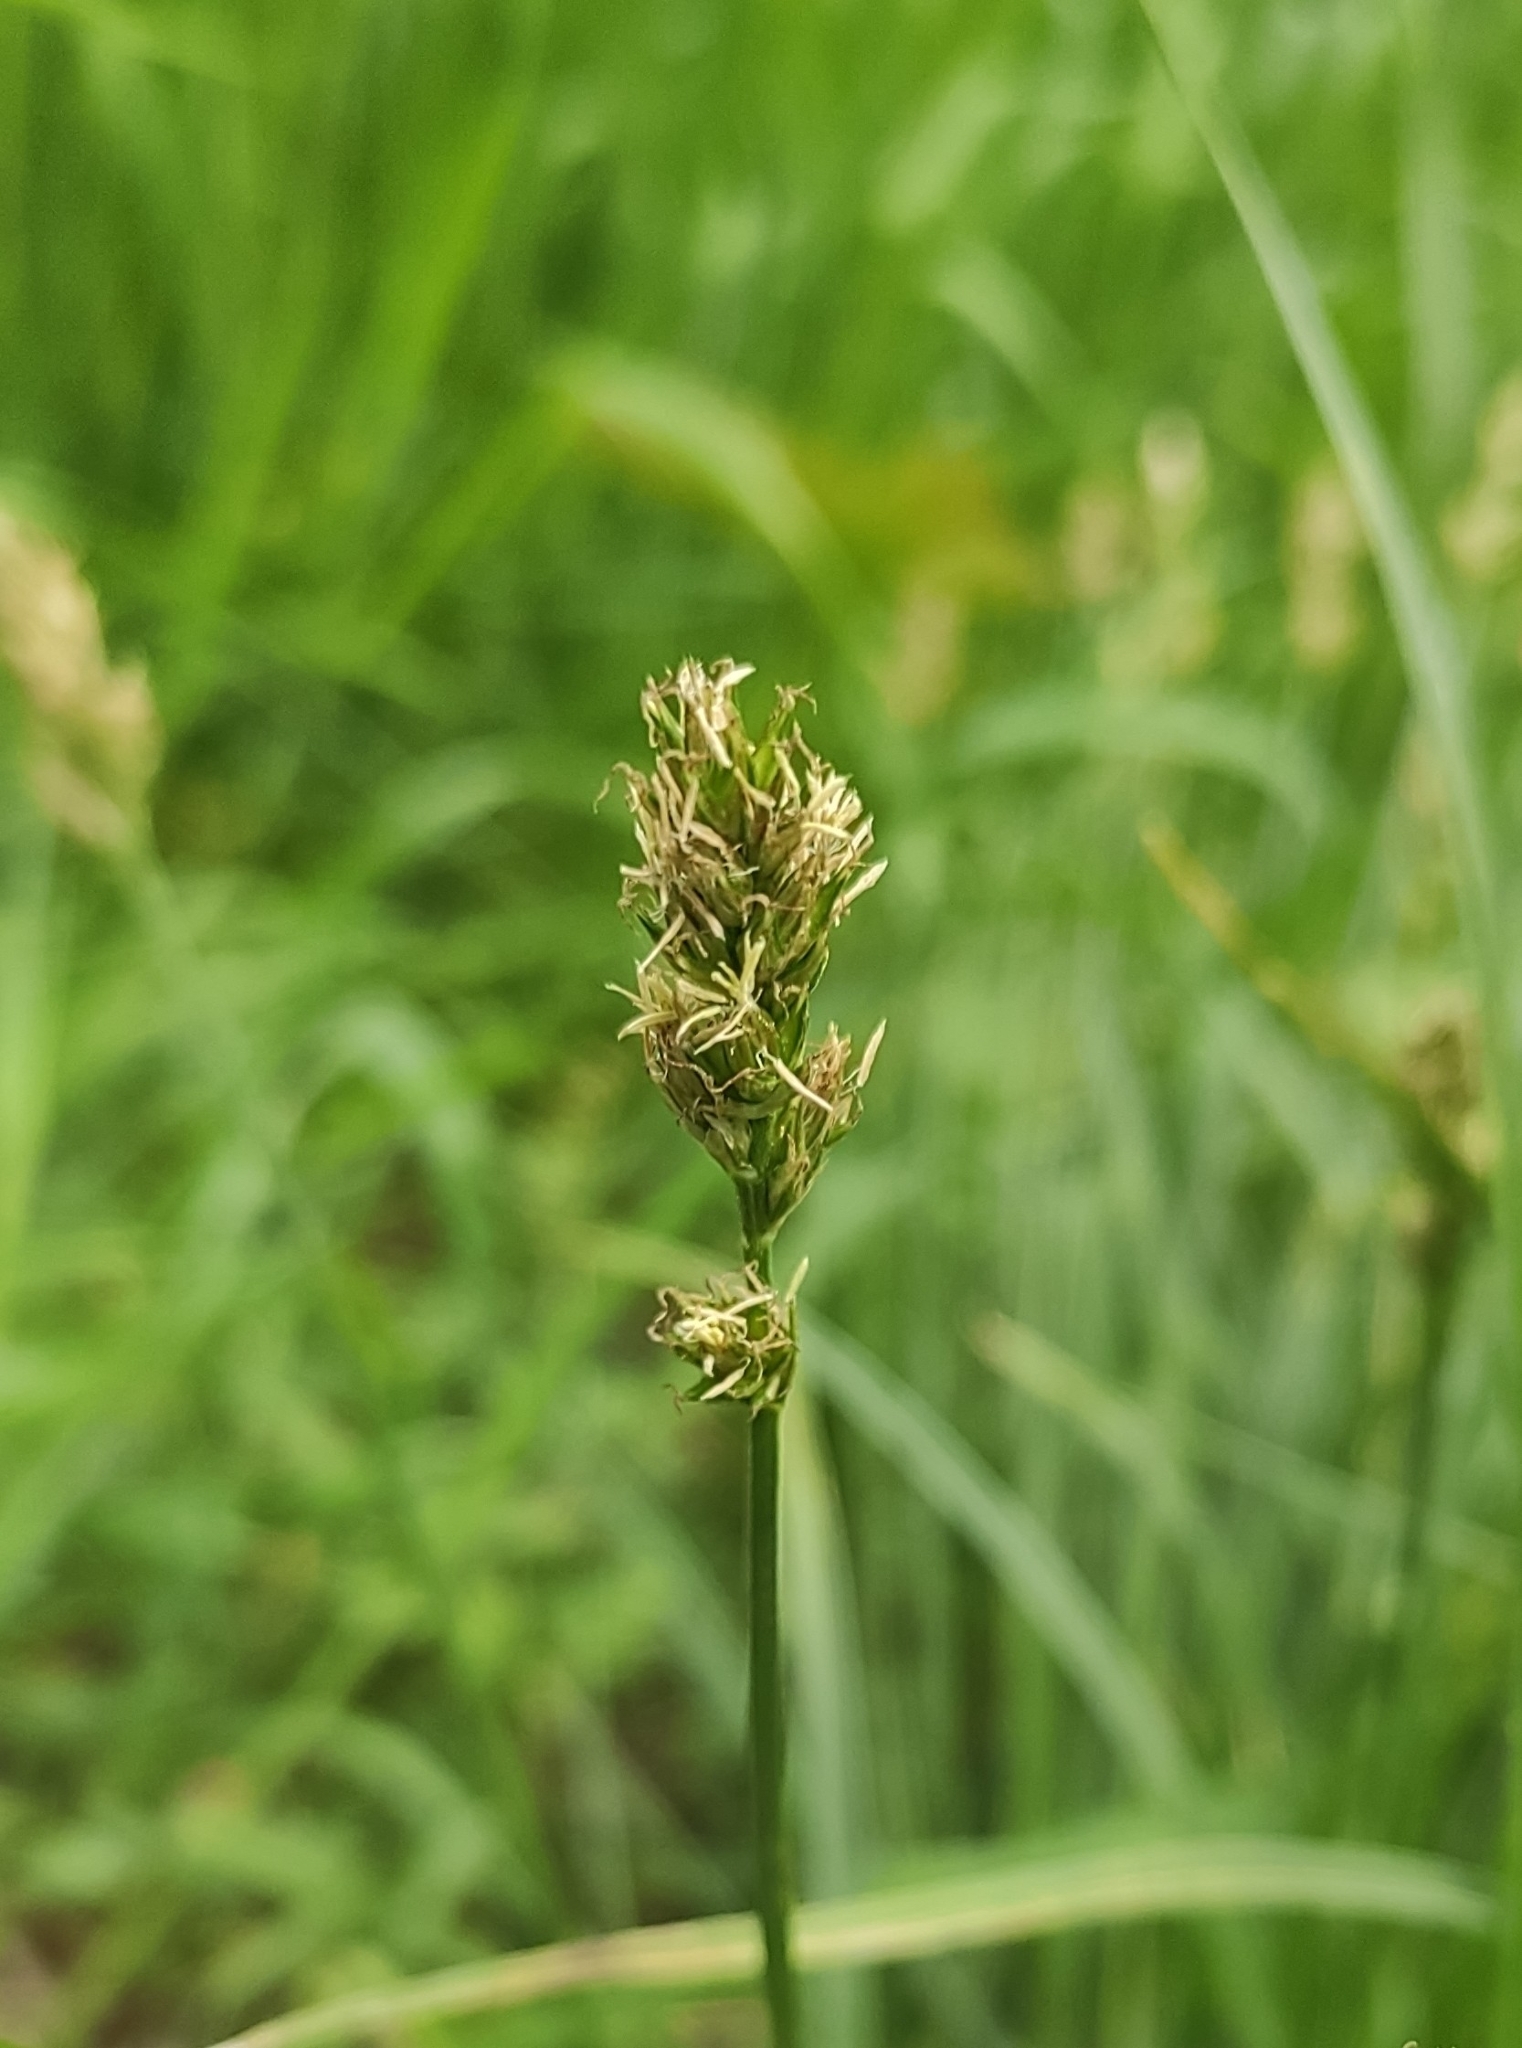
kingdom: Plantae
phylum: Tracheophyta
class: Liliopsida
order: Poales
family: Cyperaceae
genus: Carex
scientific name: Carex spicata
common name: Spiked sedge
